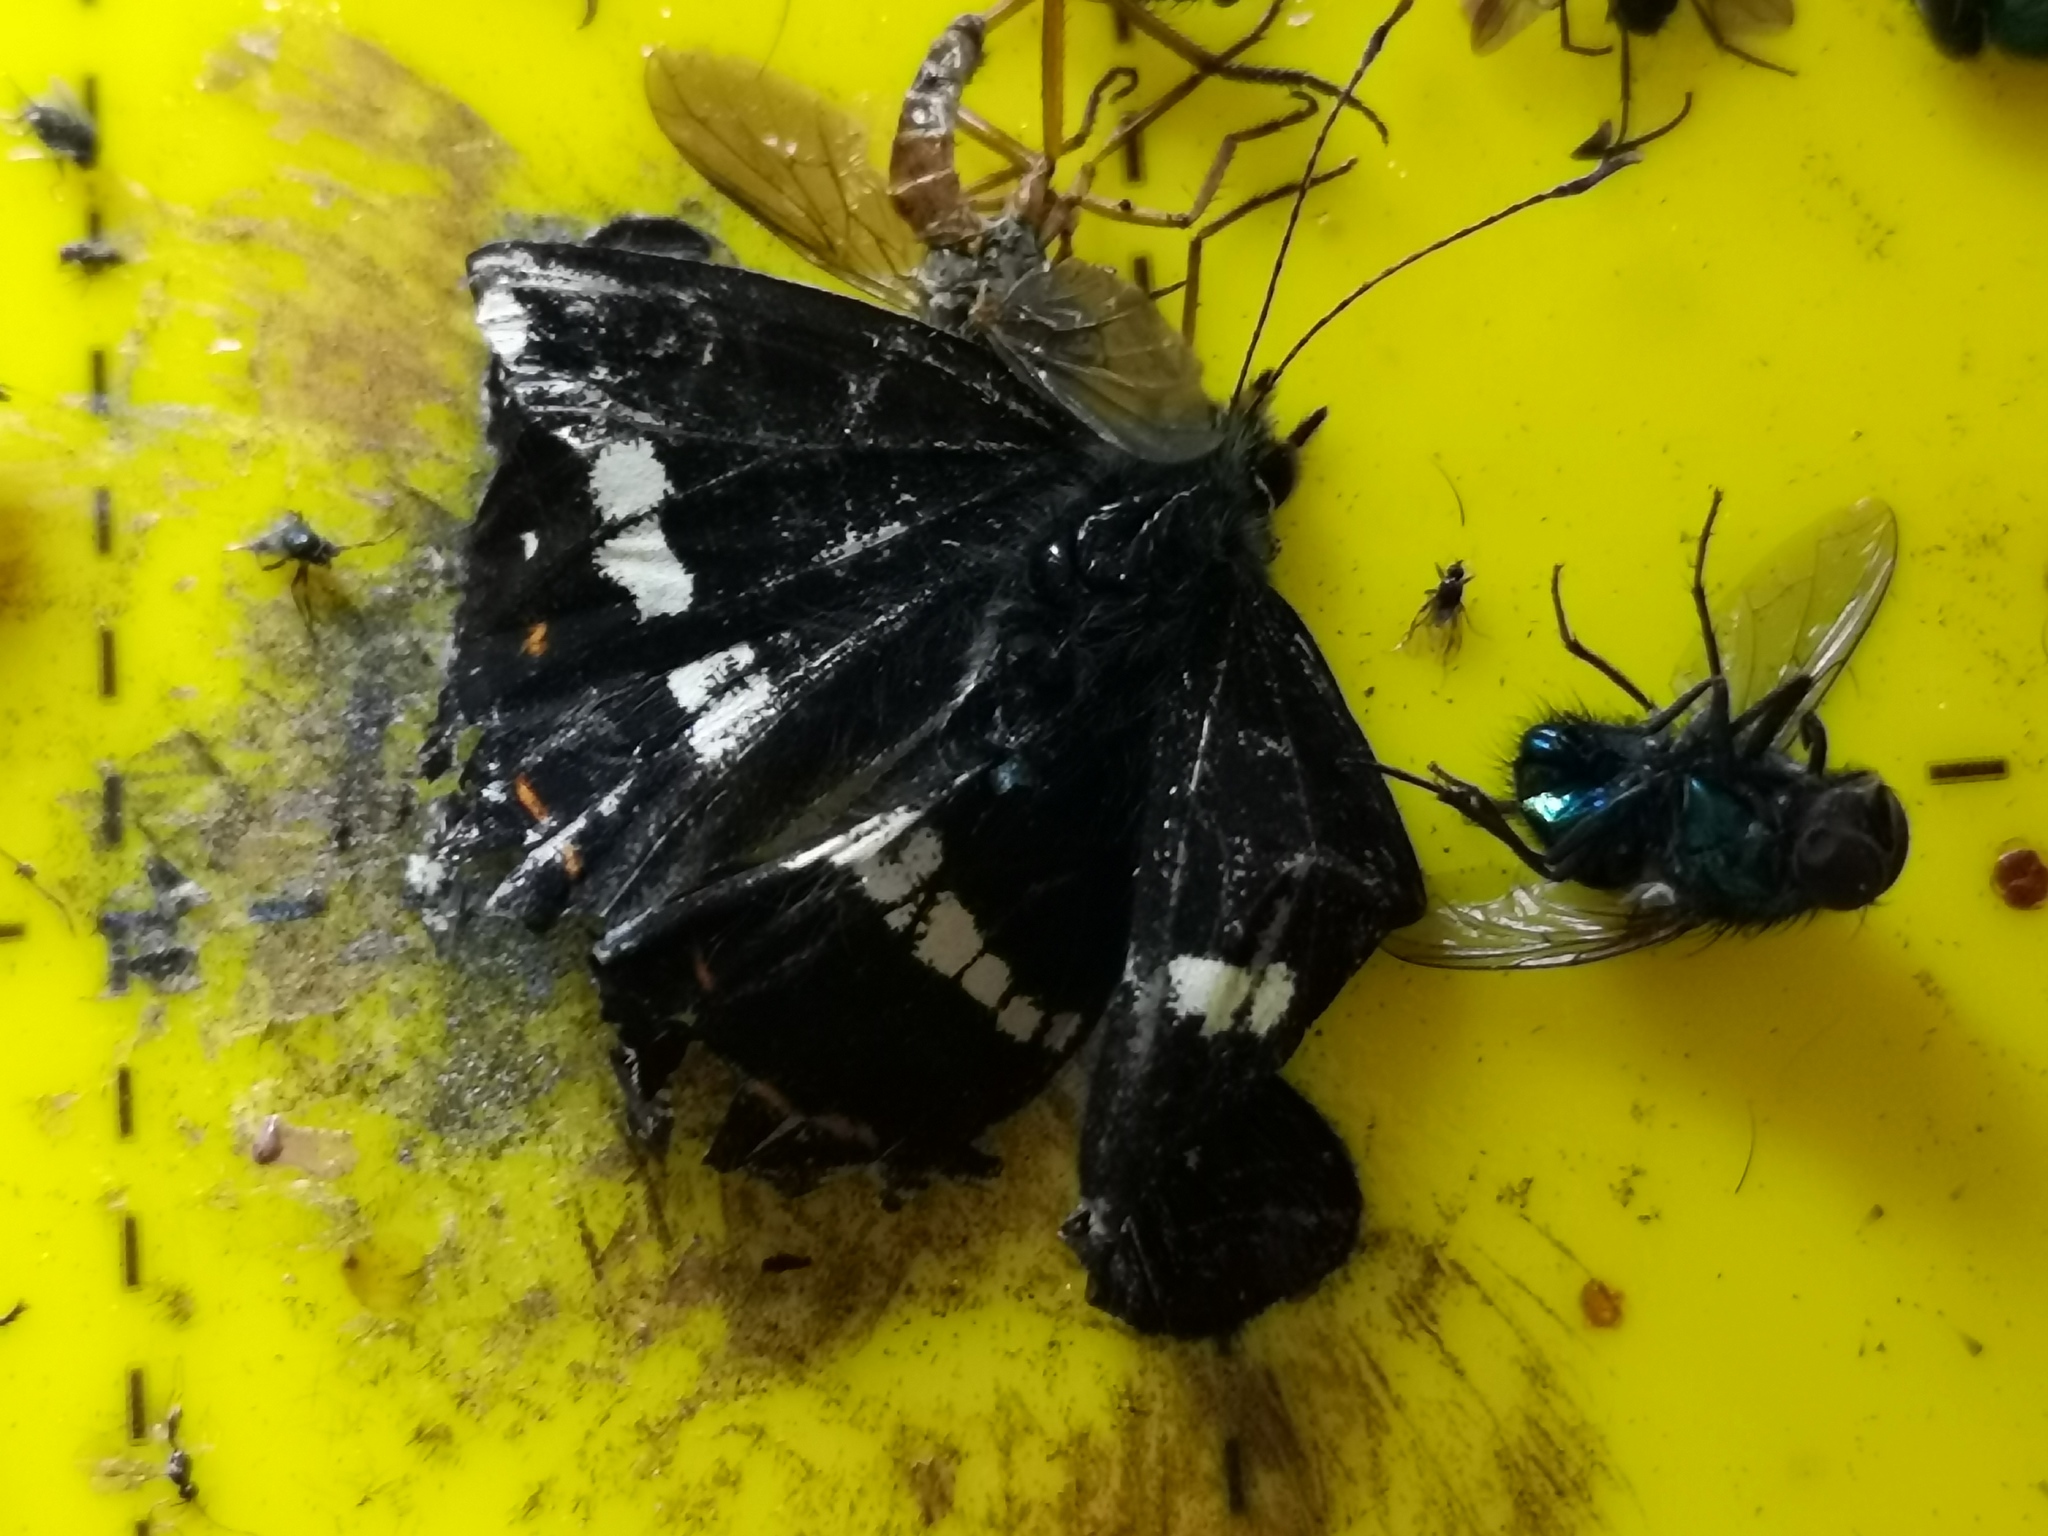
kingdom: Animalia
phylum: Arthropoda
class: Insecta
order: Lepidoptera
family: Nymphalidae
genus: Araschnia
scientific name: Araschnia levana
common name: Map butterfly
